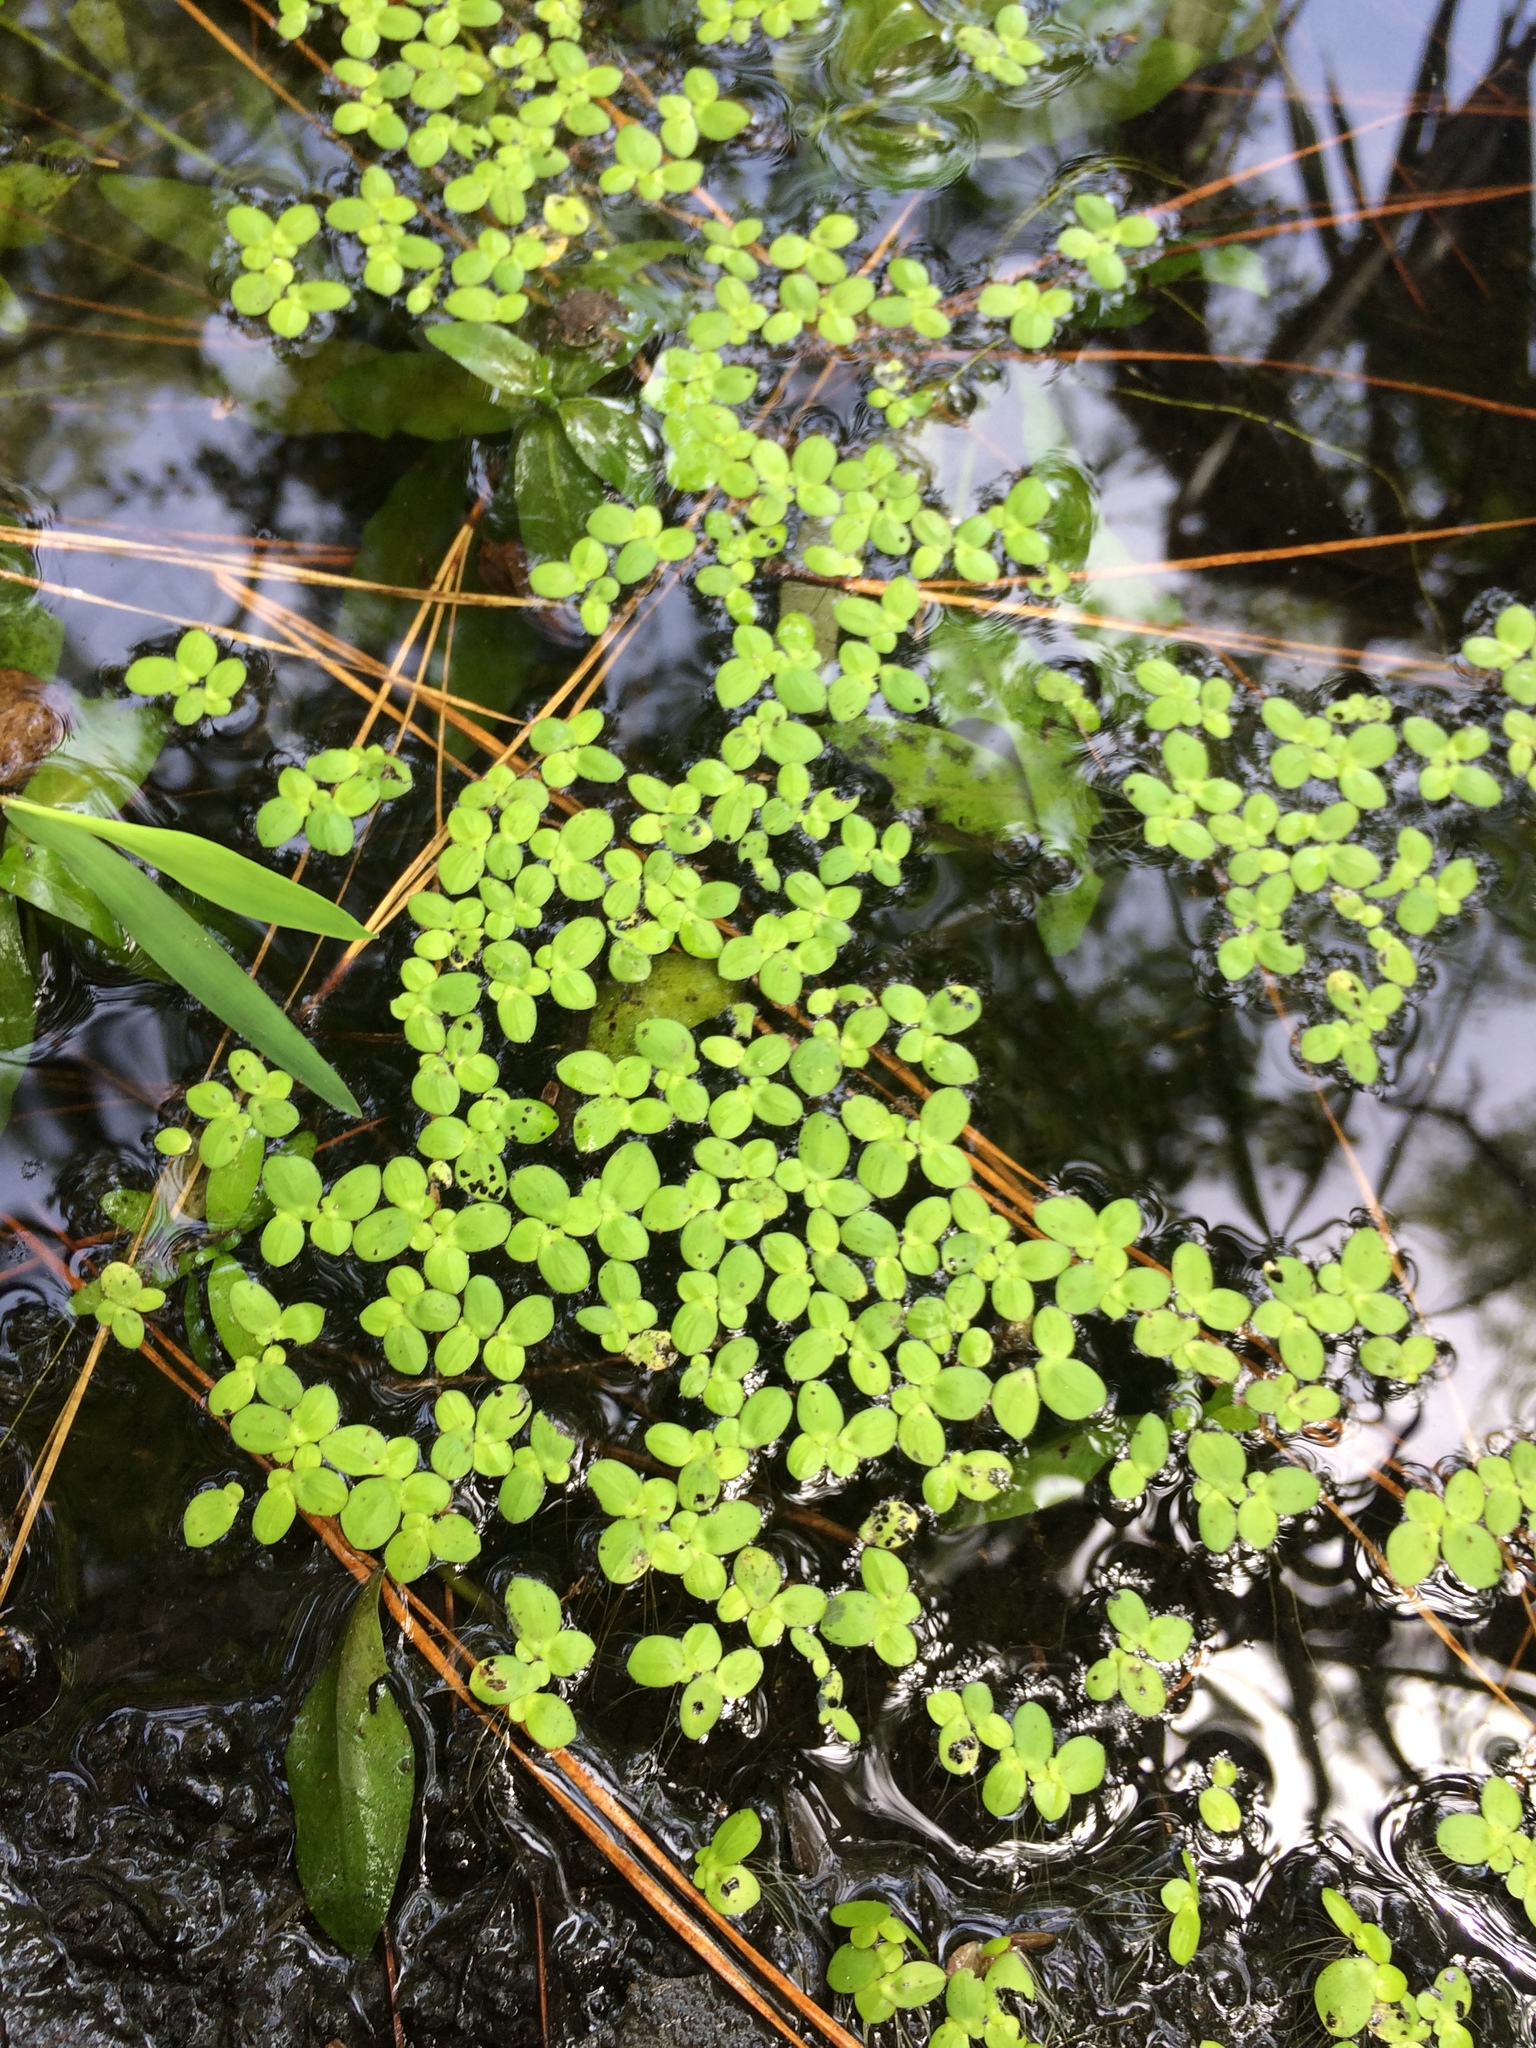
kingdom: Plantae
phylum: Tracheophyta
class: Liliopsida
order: Alismatales
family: Araceae
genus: Lemna
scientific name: Lemna minor
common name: Common duckweed
